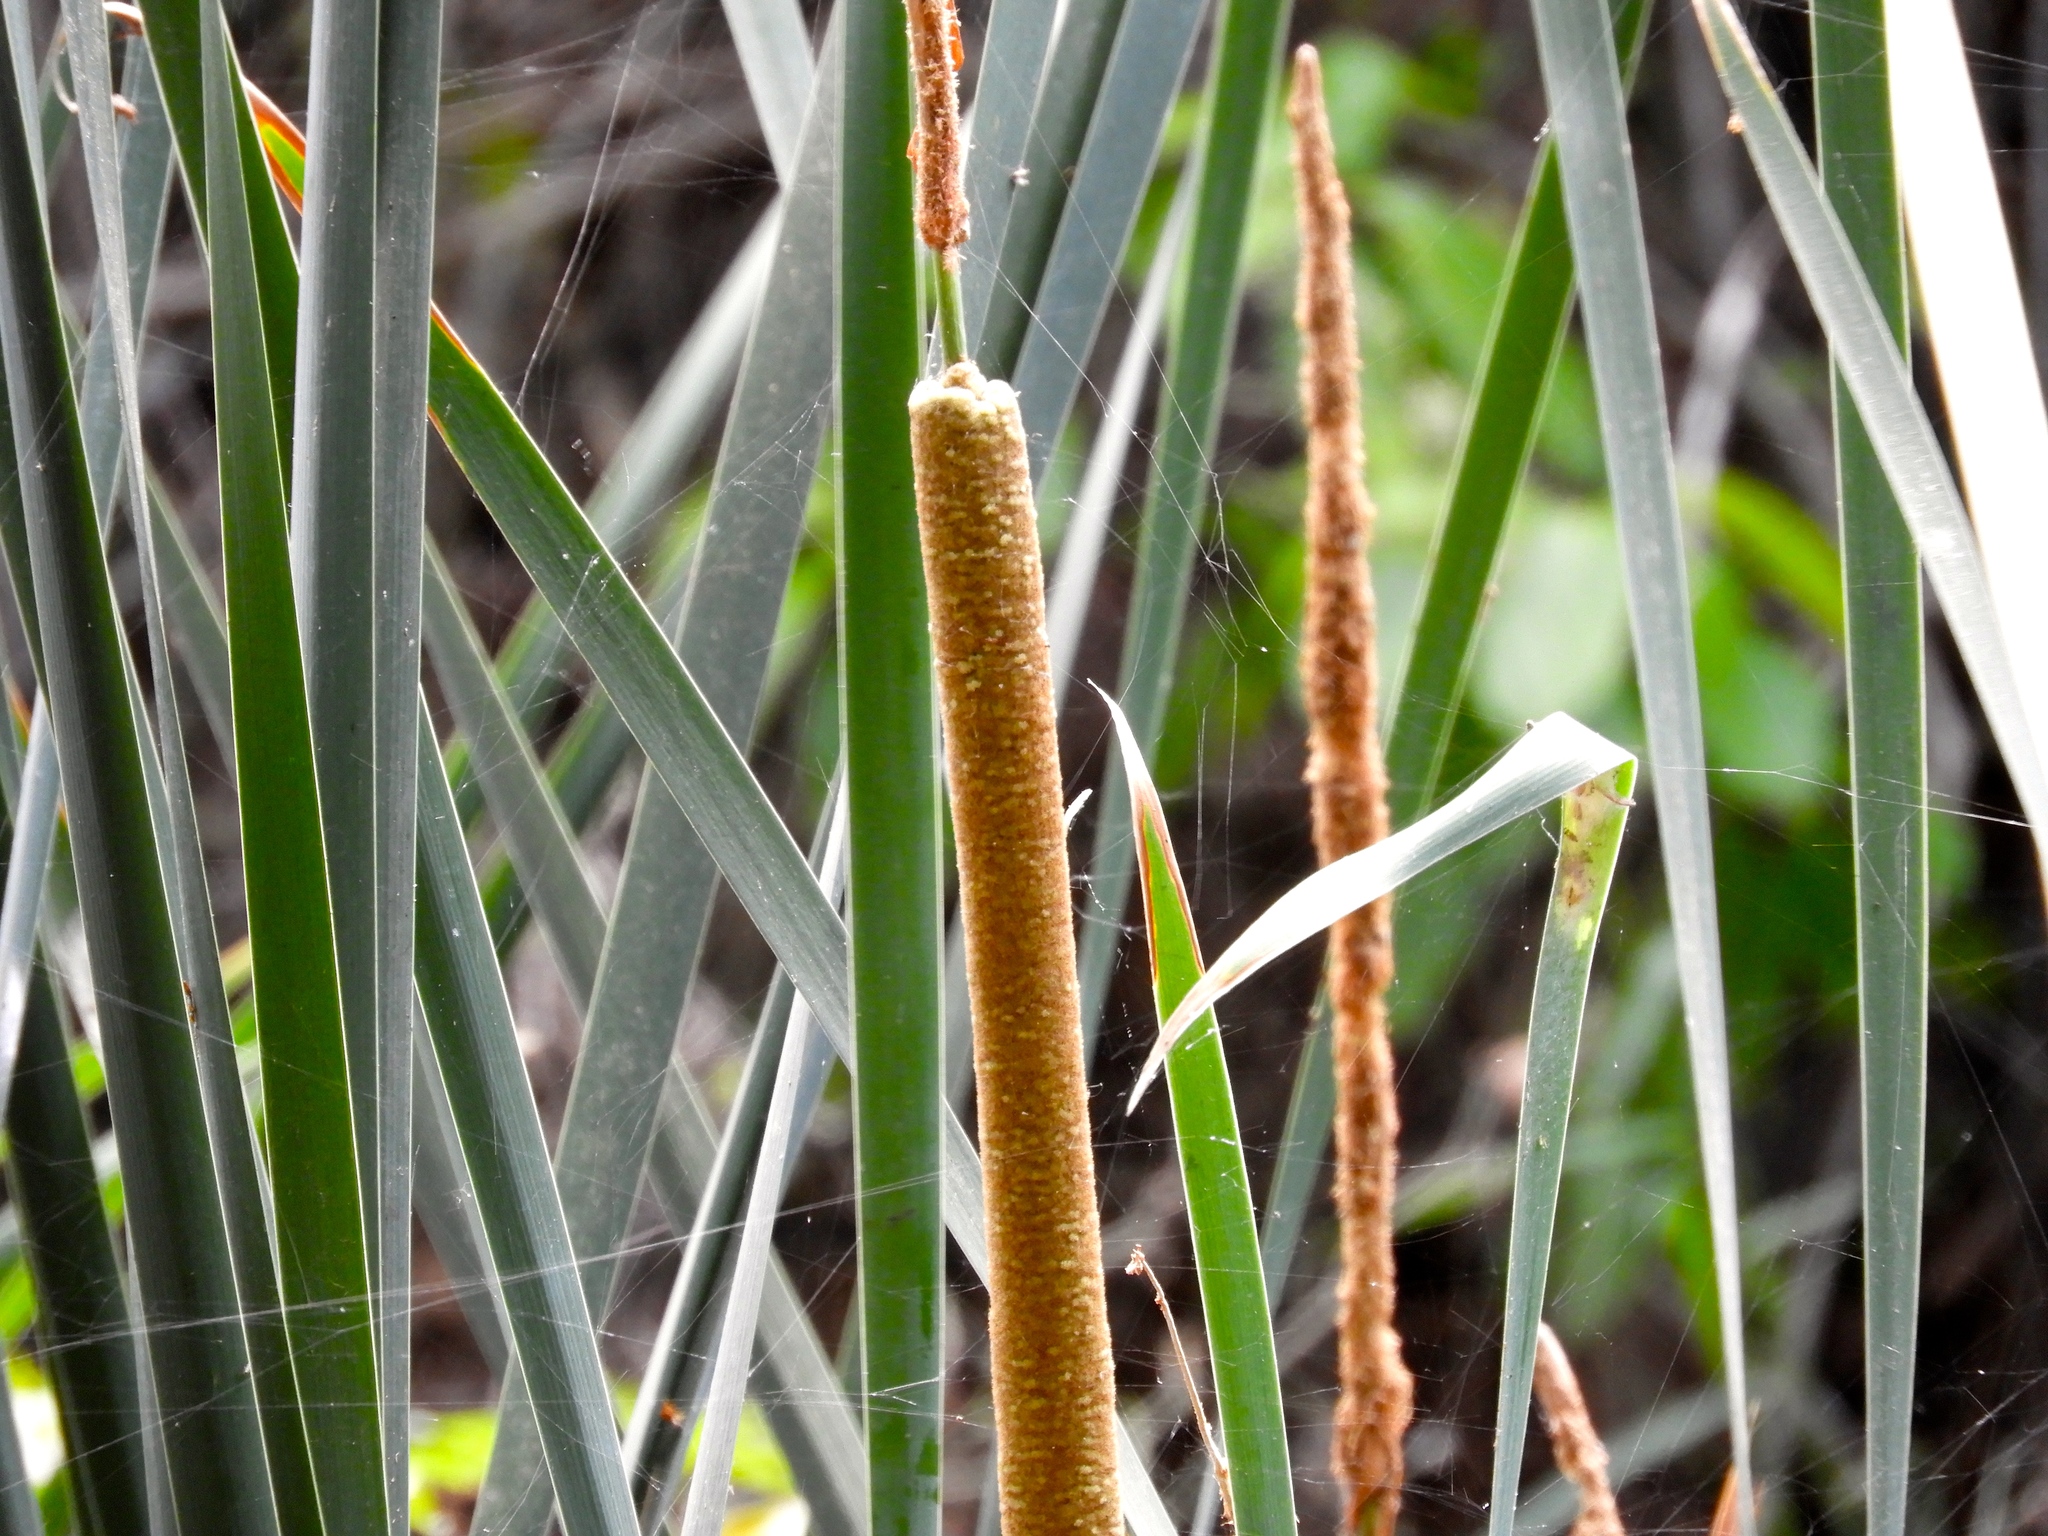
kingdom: Plantae
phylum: Tracheophyta
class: Liliopsida
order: Poales
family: Typhaceae
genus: Typha
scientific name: Typha domingensis
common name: Southern cattail
